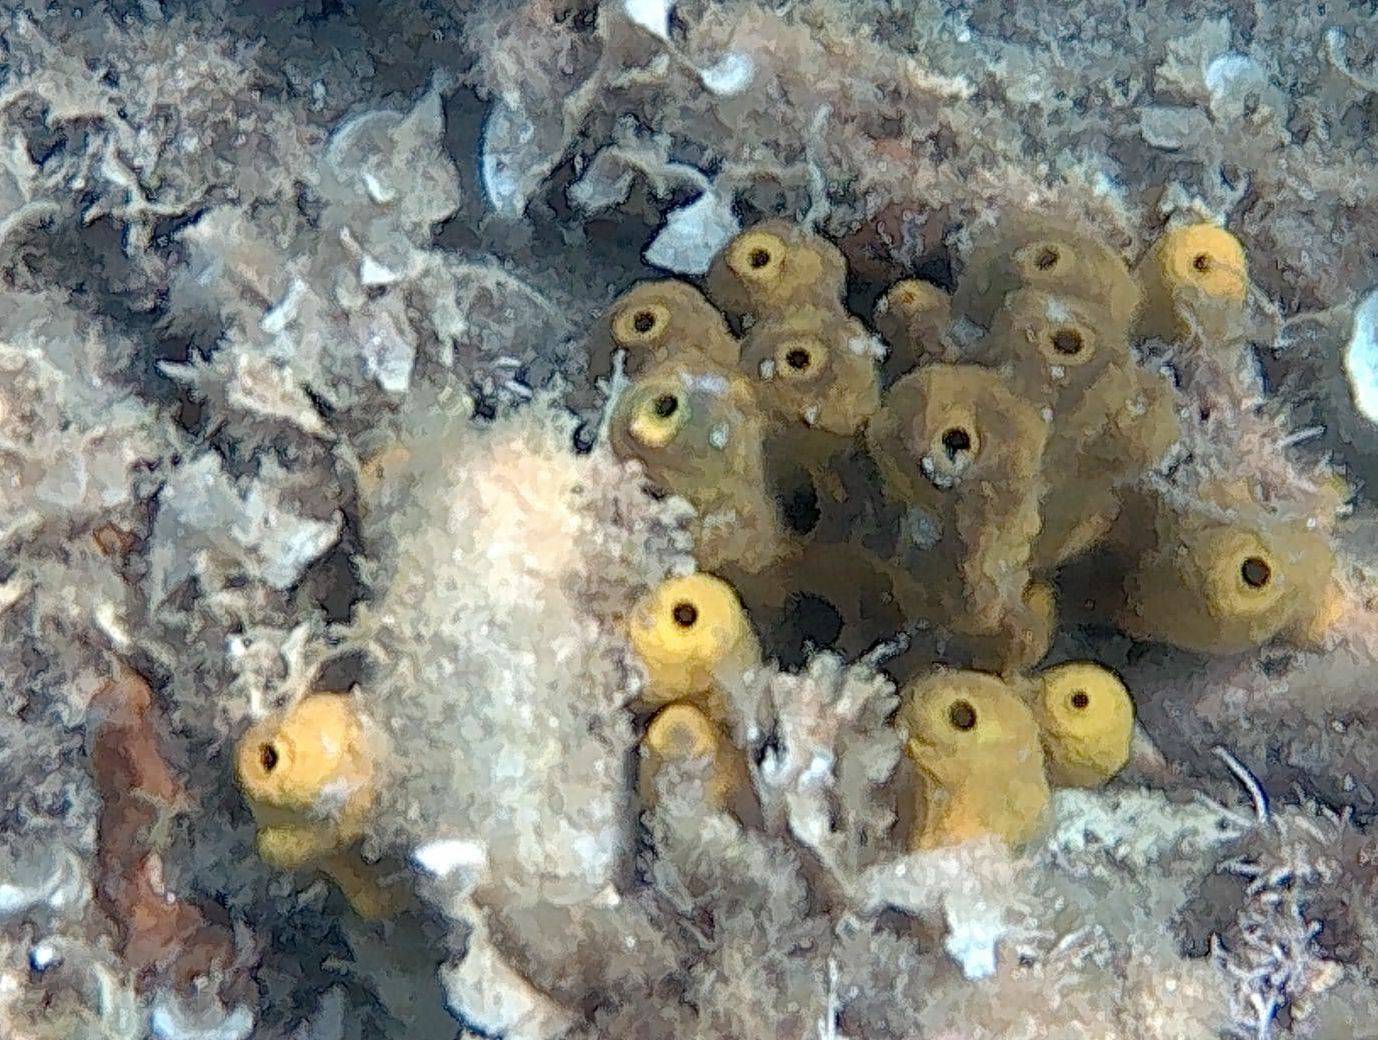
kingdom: Animalia
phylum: Porifera
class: Demospongiae
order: Verongiida
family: Aplysinidae
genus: Aplysina
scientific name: Aplysina aerophoba
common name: Aureate sponge
